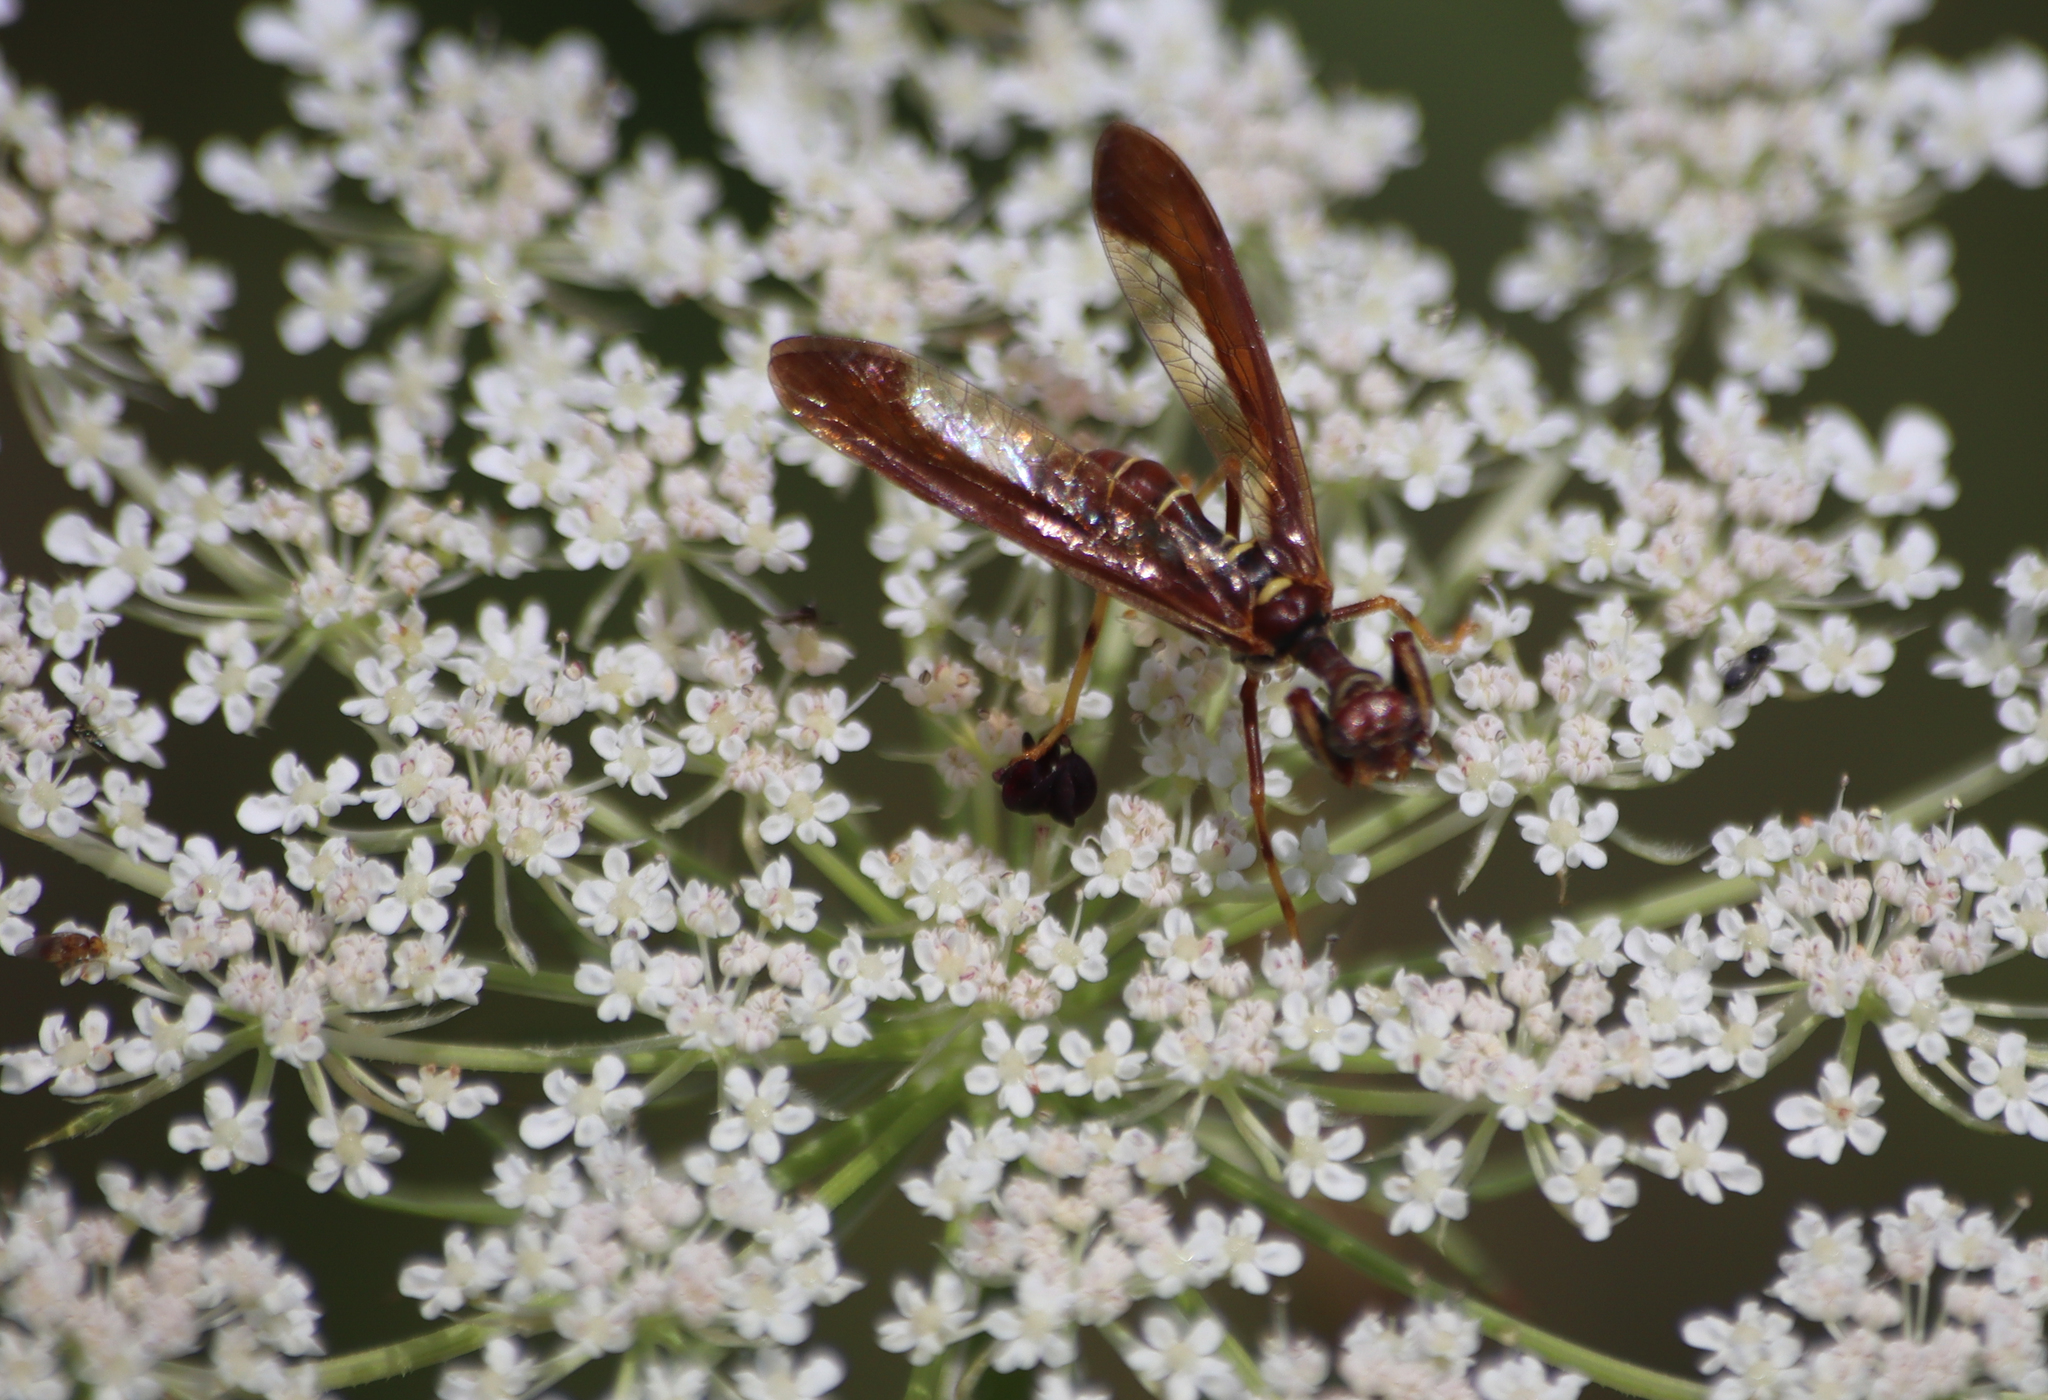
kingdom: Animalia
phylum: Arthropoda
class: Insecta
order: Neuroptera
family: Mantispidae
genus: Climaciella
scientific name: Climaciella brunnea
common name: Brown wasp mantidfly
